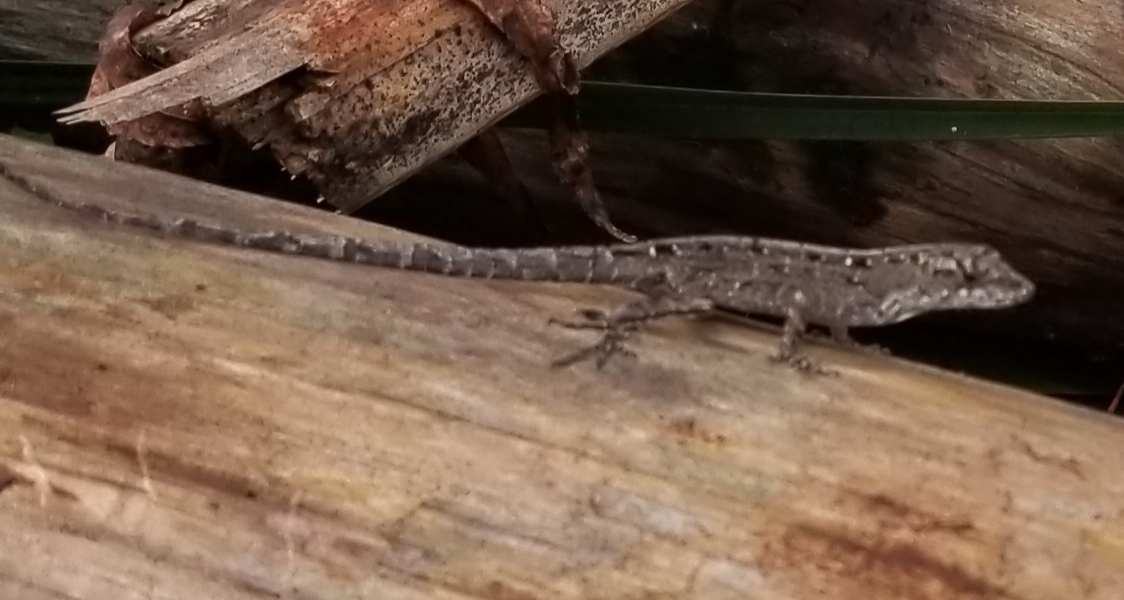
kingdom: Animalia
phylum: Chordata
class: Squamata
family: Dactyloidae
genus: Anolis
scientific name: Anolis sagrei
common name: Brown anole
